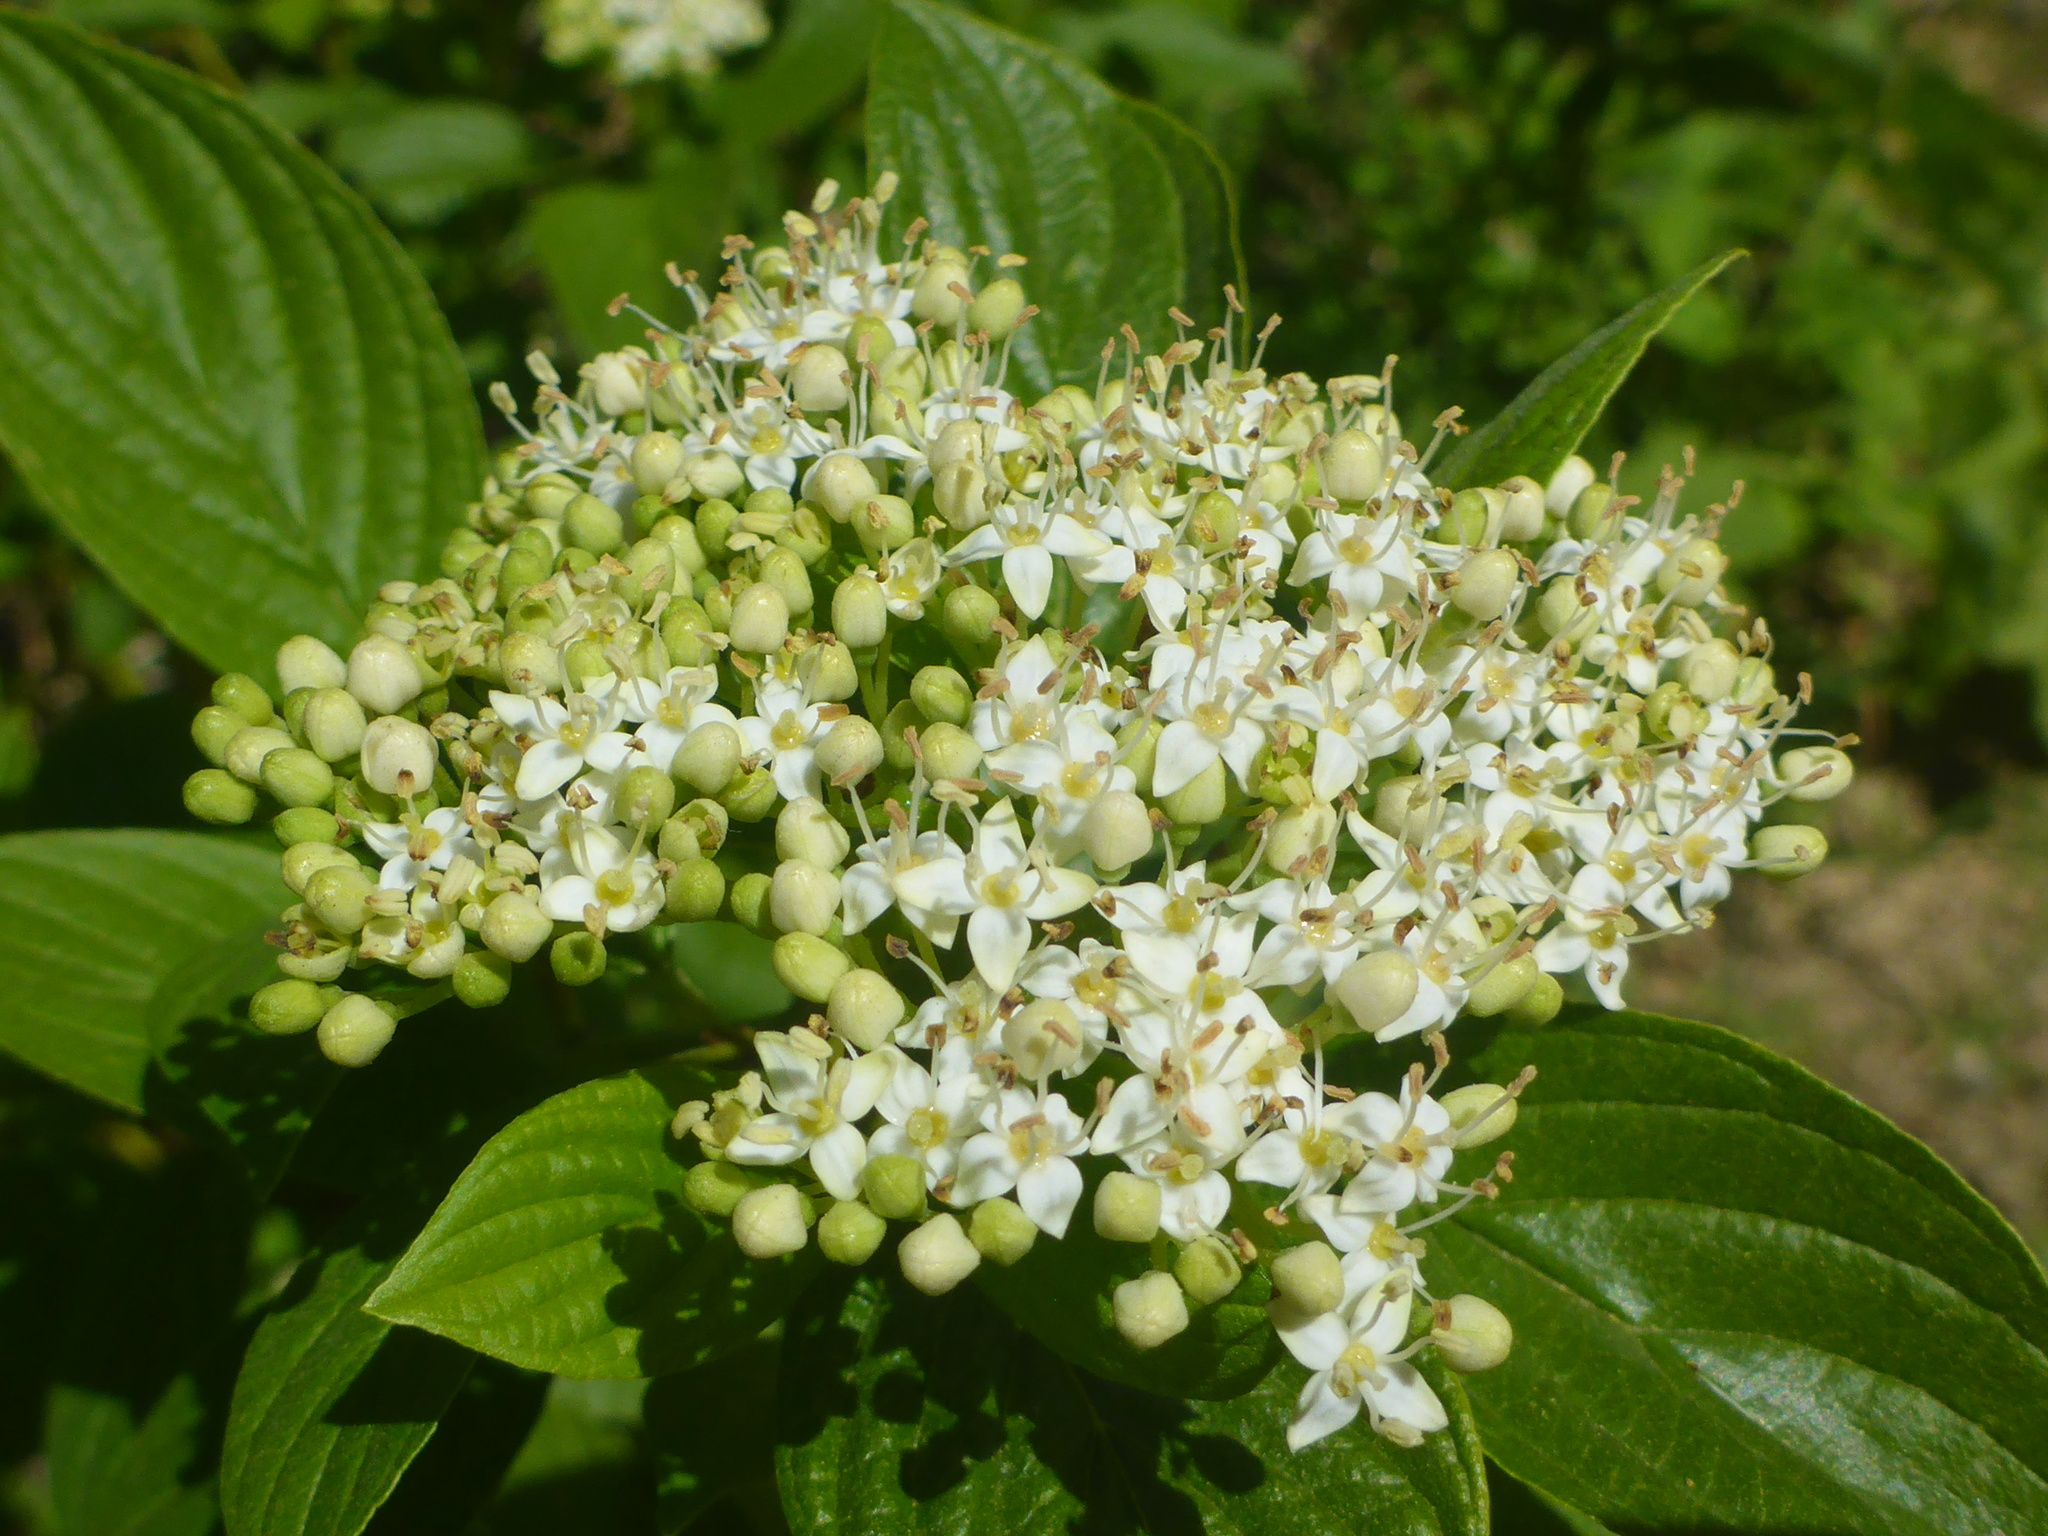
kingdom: Plantae
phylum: Tracheophyta
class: Magnoliopsida
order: Cornales
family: Cornaceae
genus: Cornus
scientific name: Cornus sericea
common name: Red-osier dogwood
